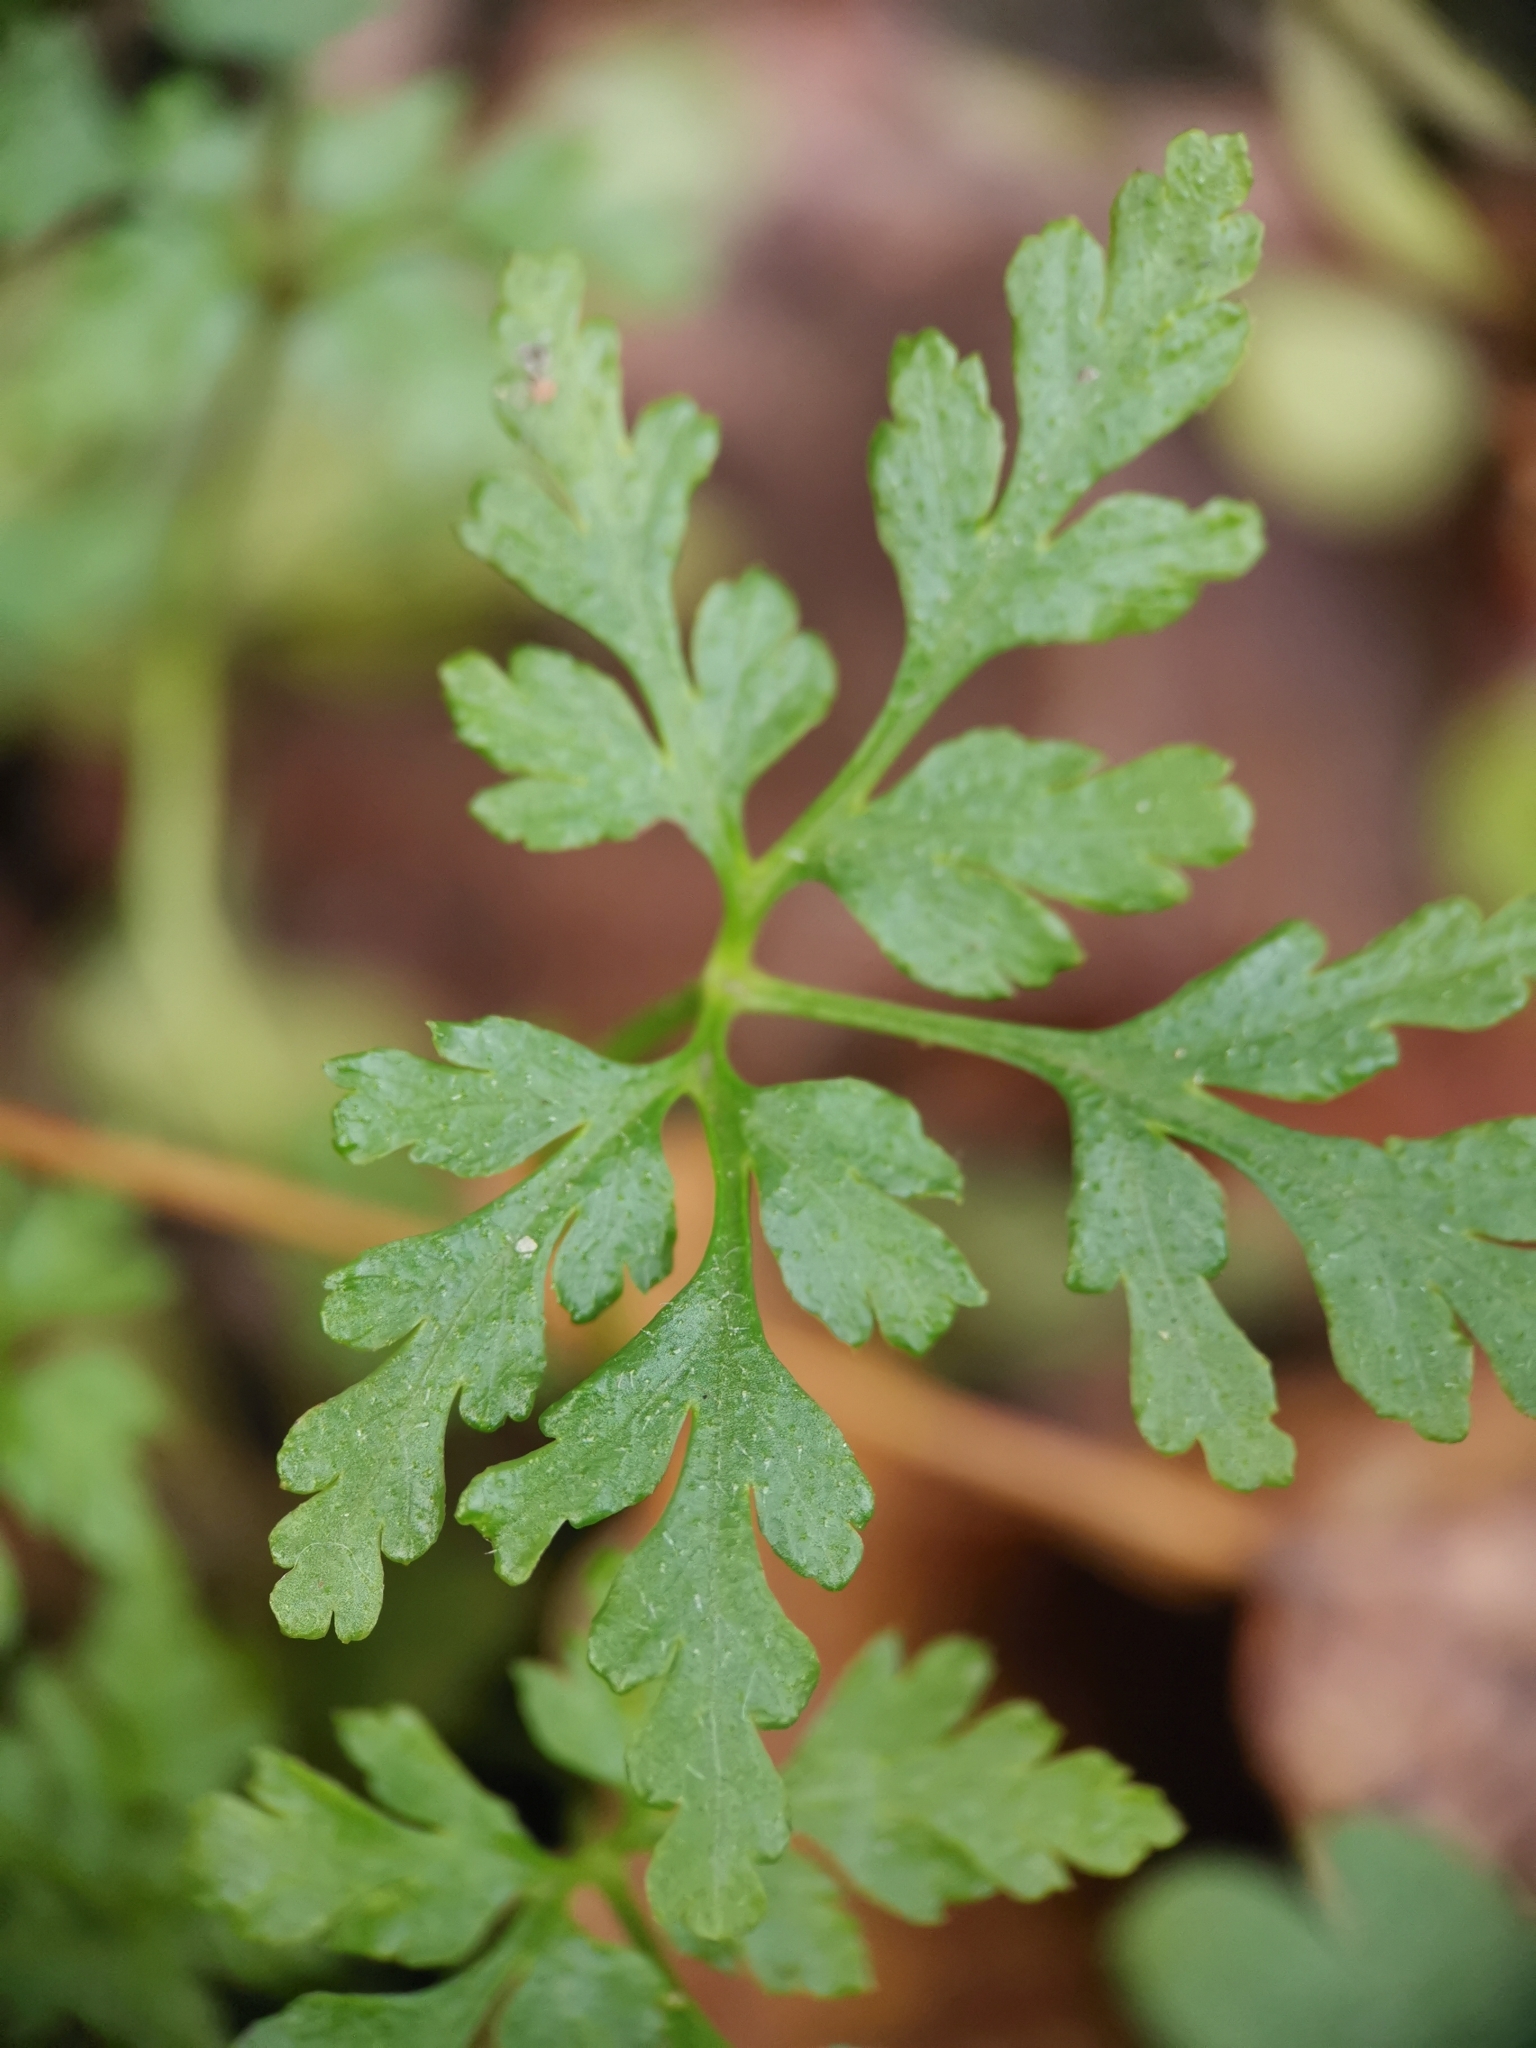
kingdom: Plantae
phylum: Tracheophyta
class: Magnoliopsida
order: Geraniales
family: Geraniaceae
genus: Geranium
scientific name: Geranium robertianum
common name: Herb-robert
